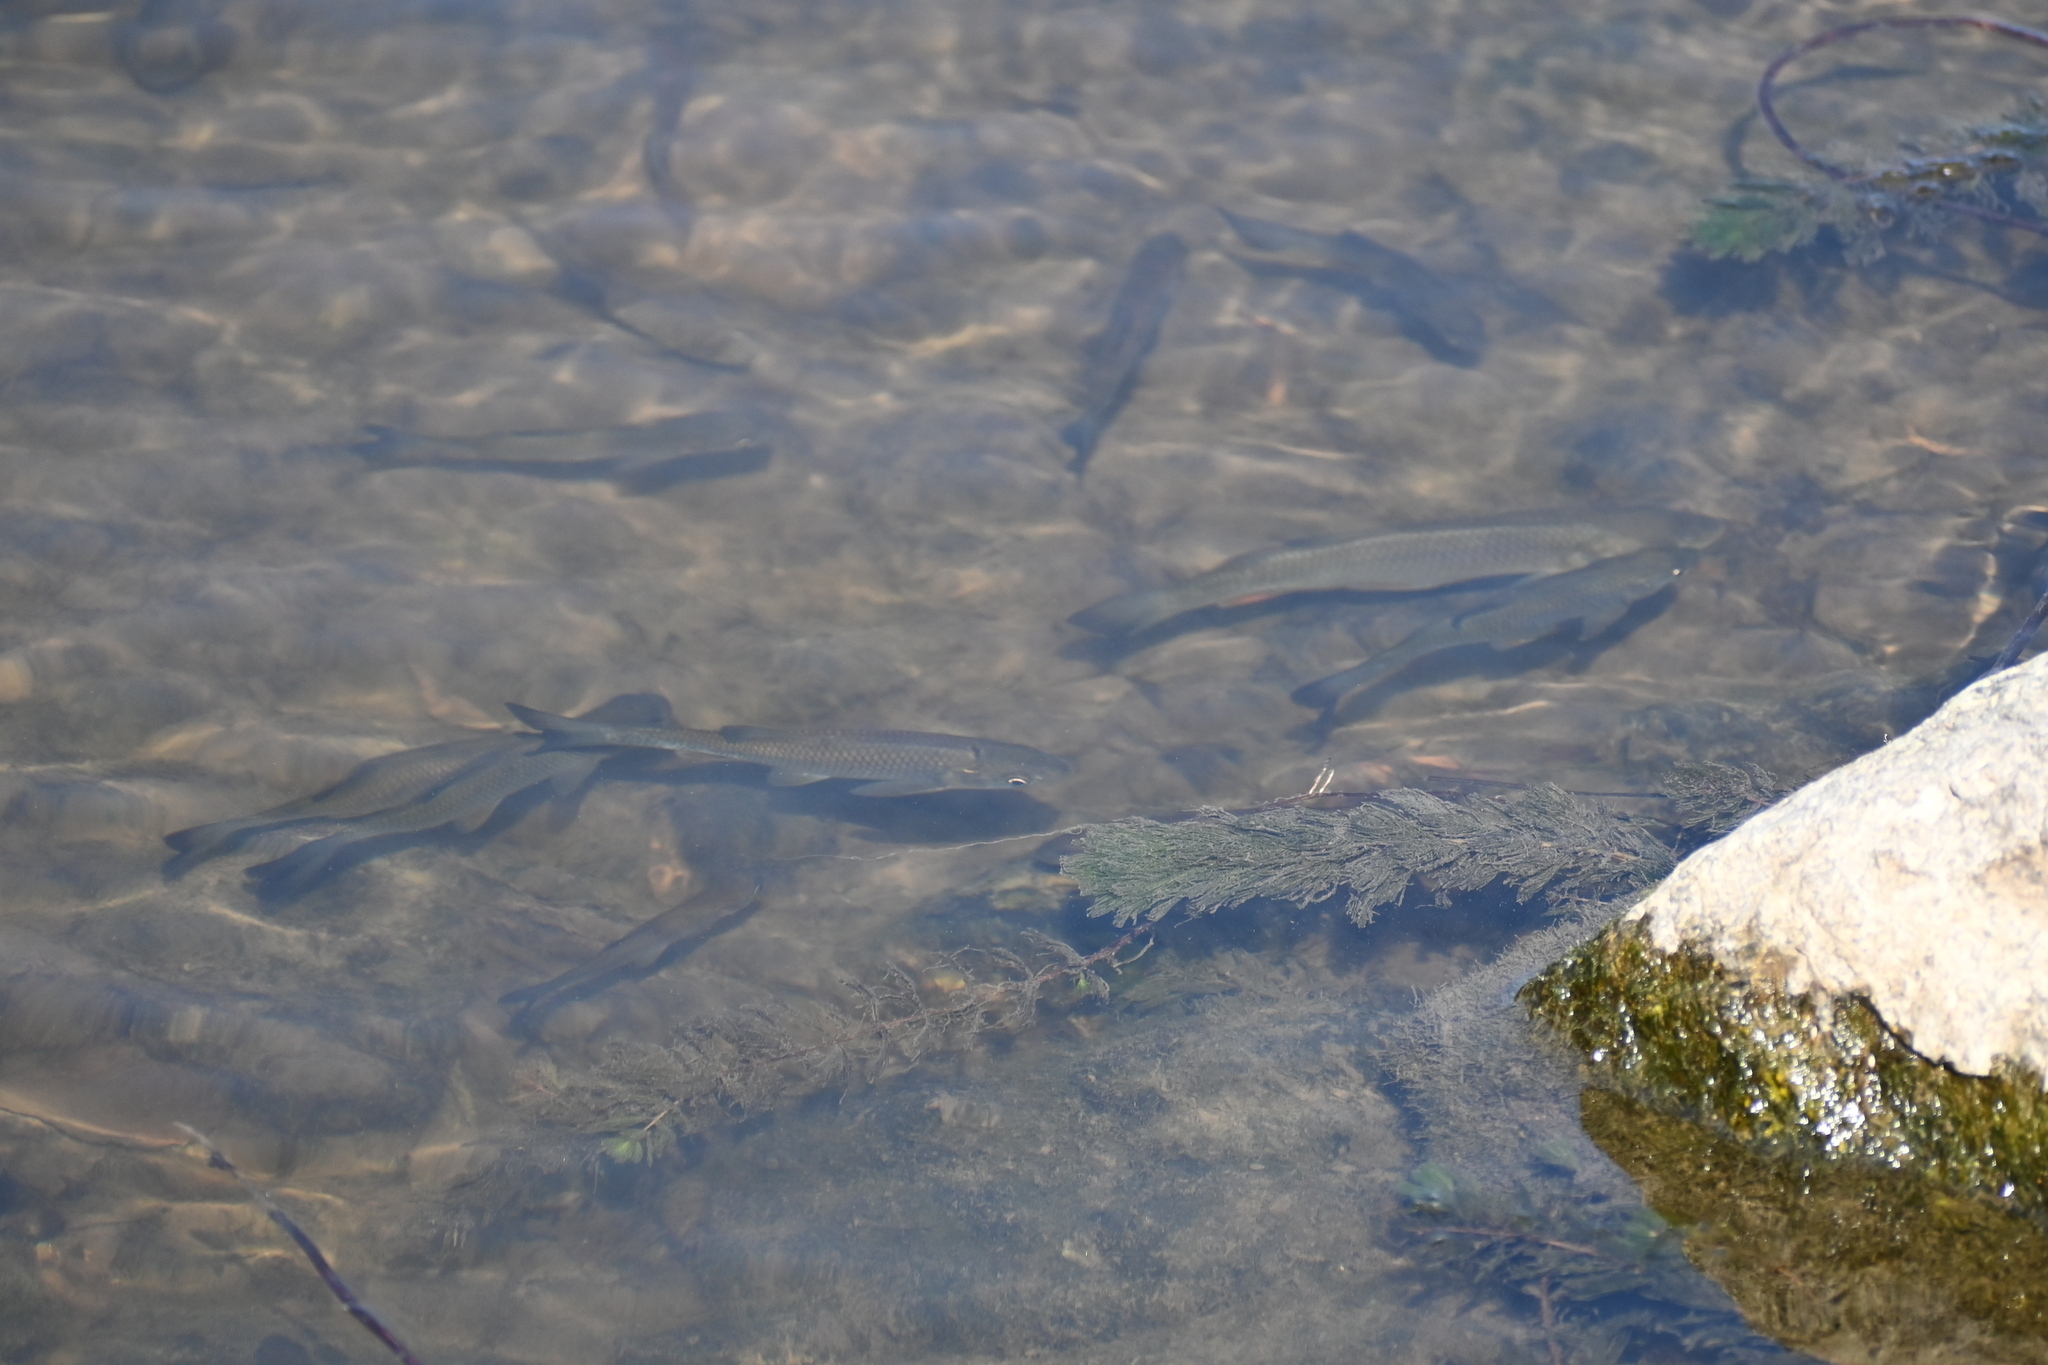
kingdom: Animalia
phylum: Chordata
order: Cypriniformes
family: Cyprinidae
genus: Squalius
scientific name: Squalius cephalus
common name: Chub
